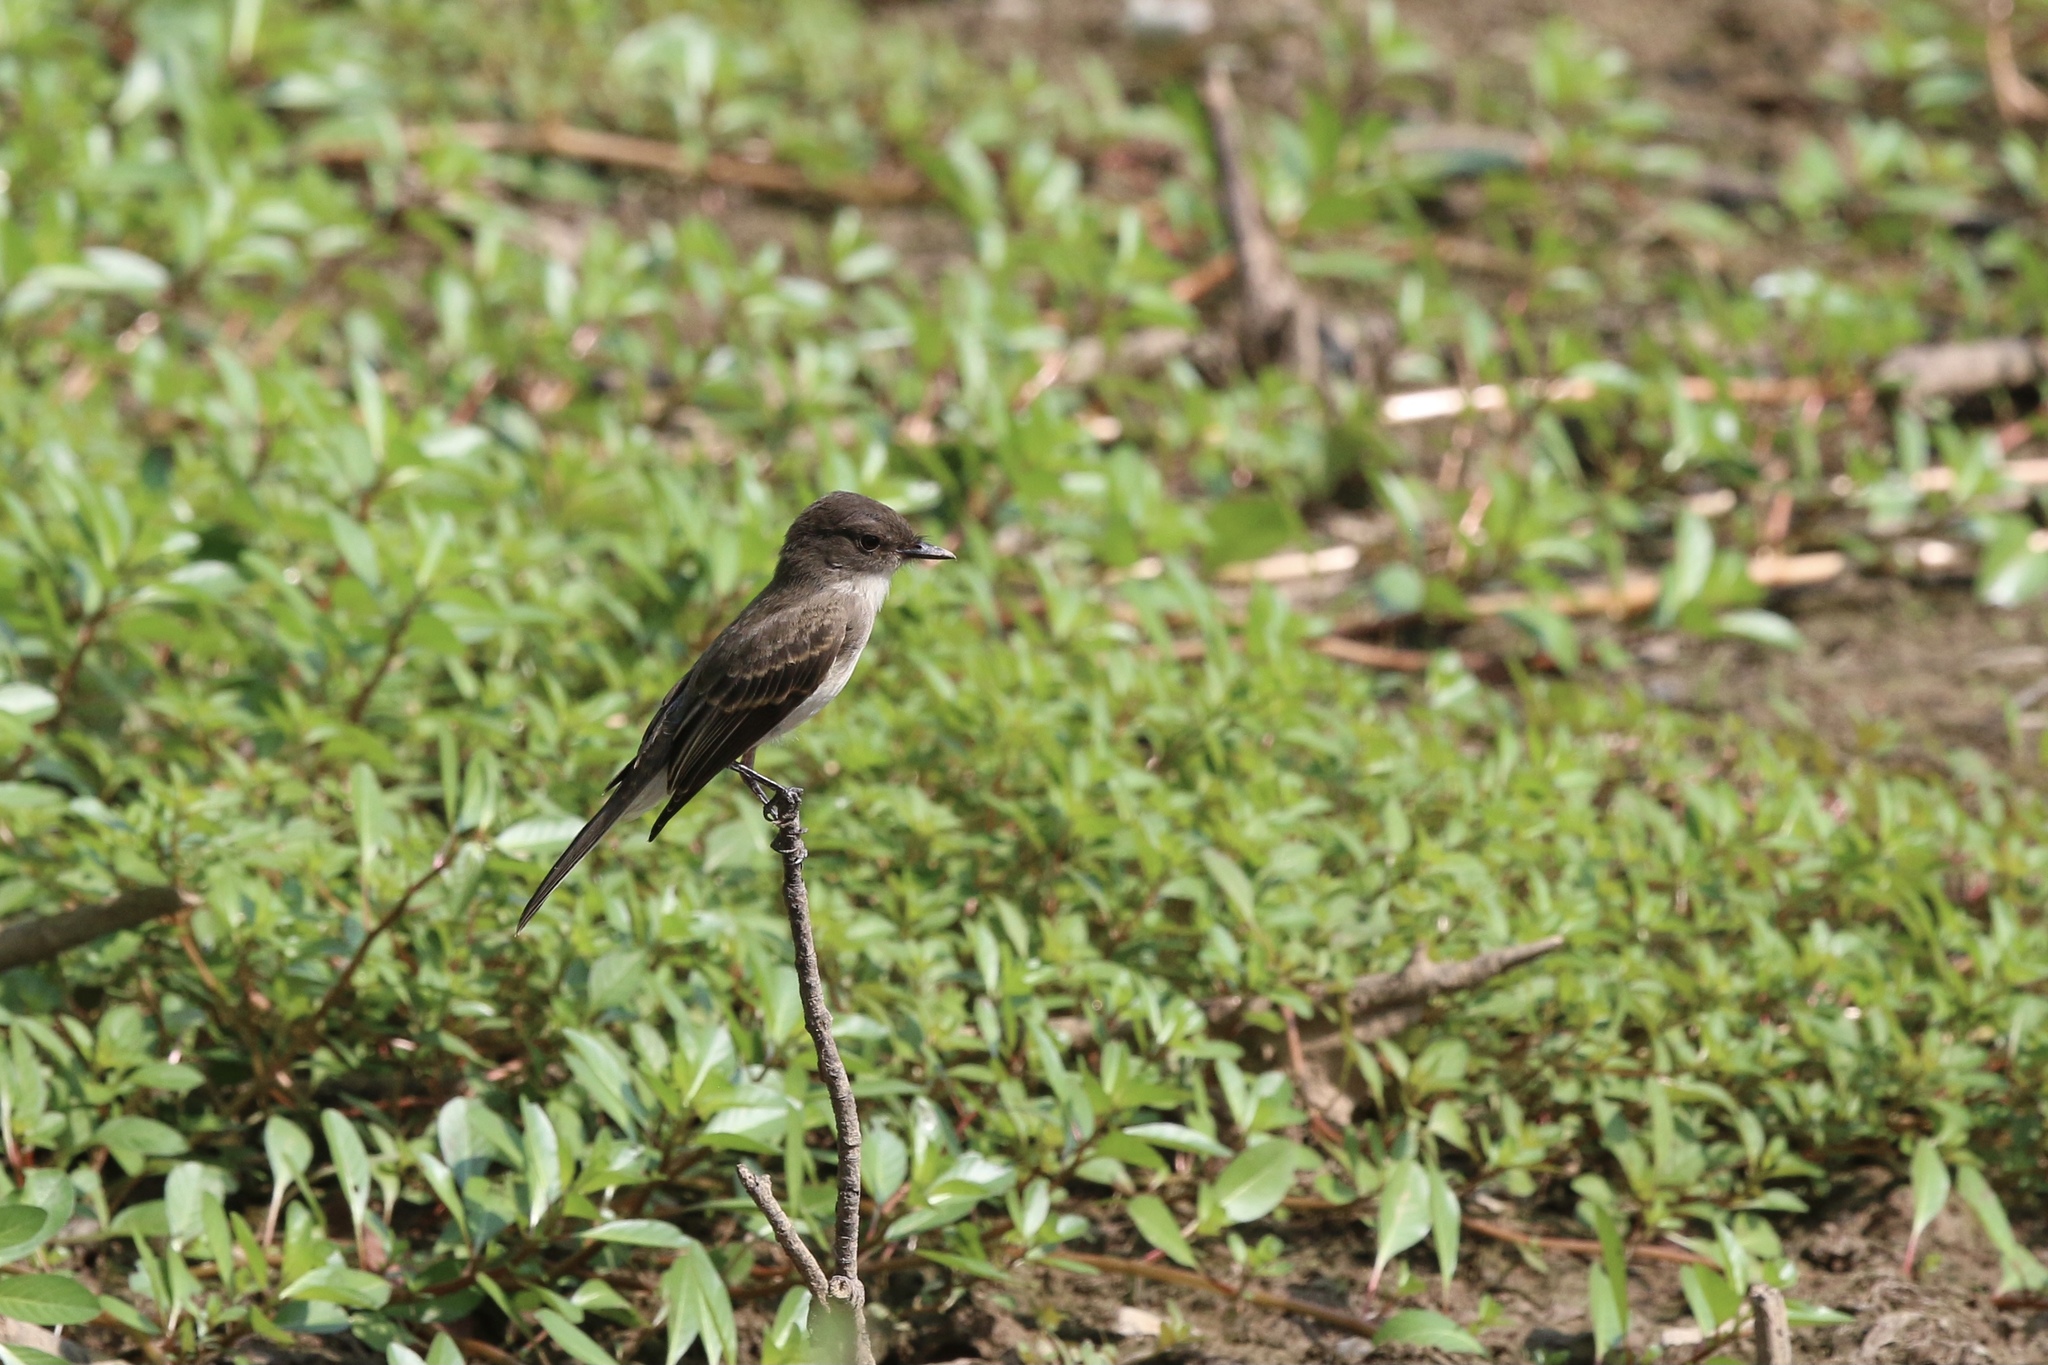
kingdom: Animalia
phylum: Chordata
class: Aves
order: Passeriformes
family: Tyrannidae
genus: Sayornis
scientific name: Sayornis phoebe
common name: Eastern phoebe
